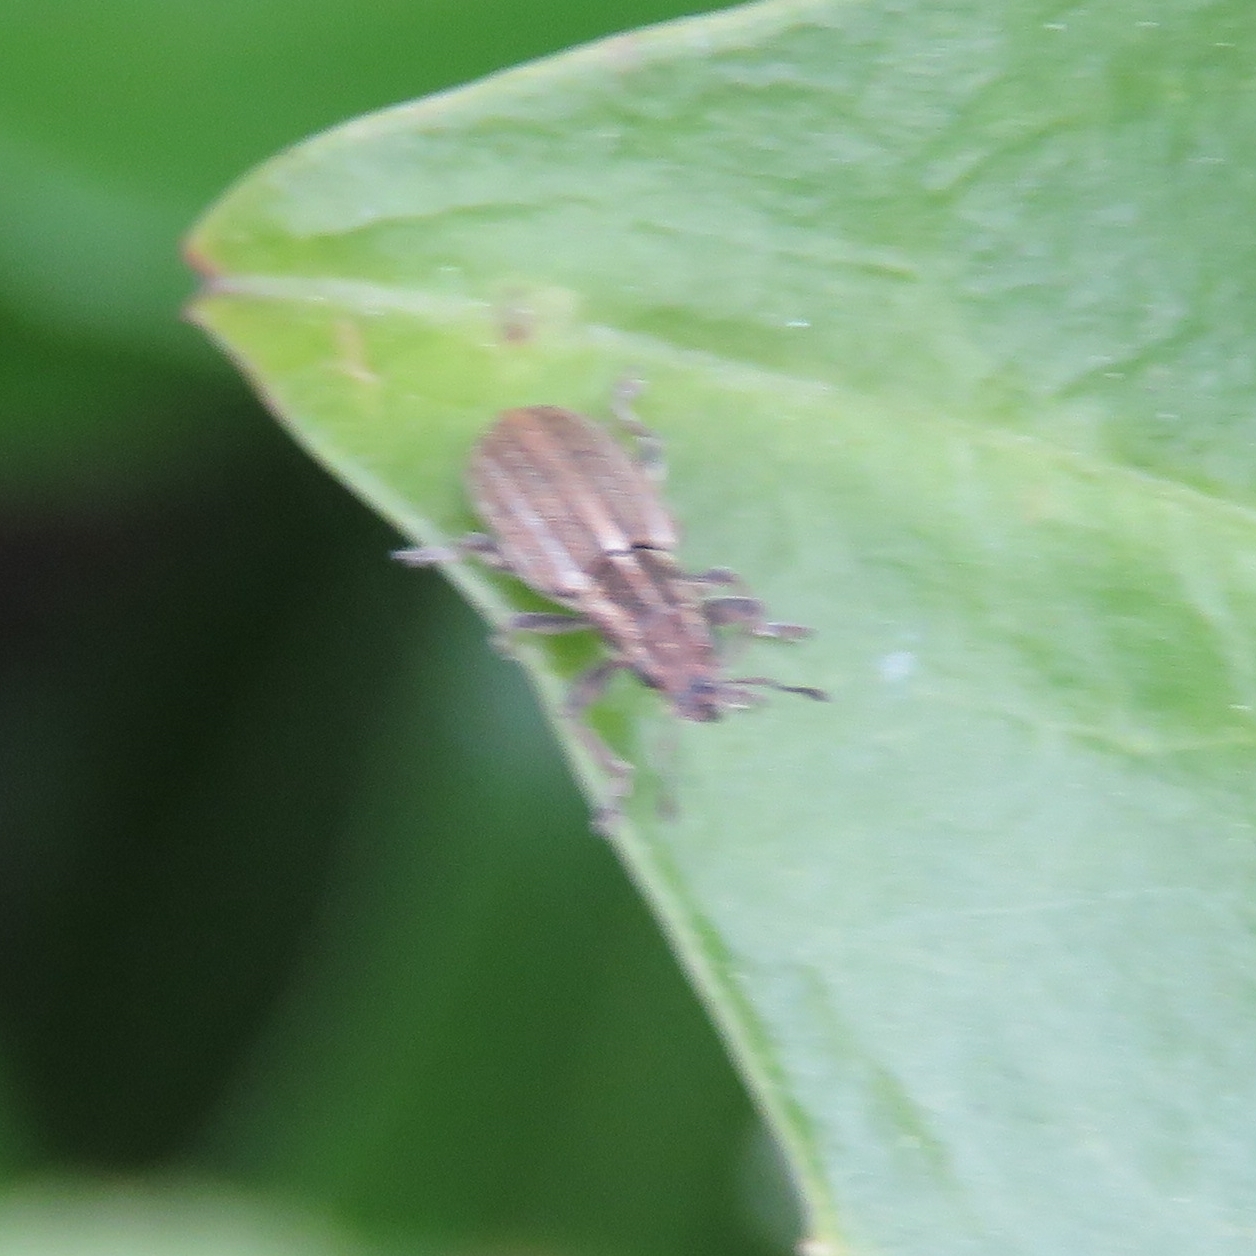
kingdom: Animalia
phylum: Arthropoda
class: Insecta
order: Coleoptera
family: Curculionidae
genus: Sitona
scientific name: Sitona lineatus
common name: Weevil
